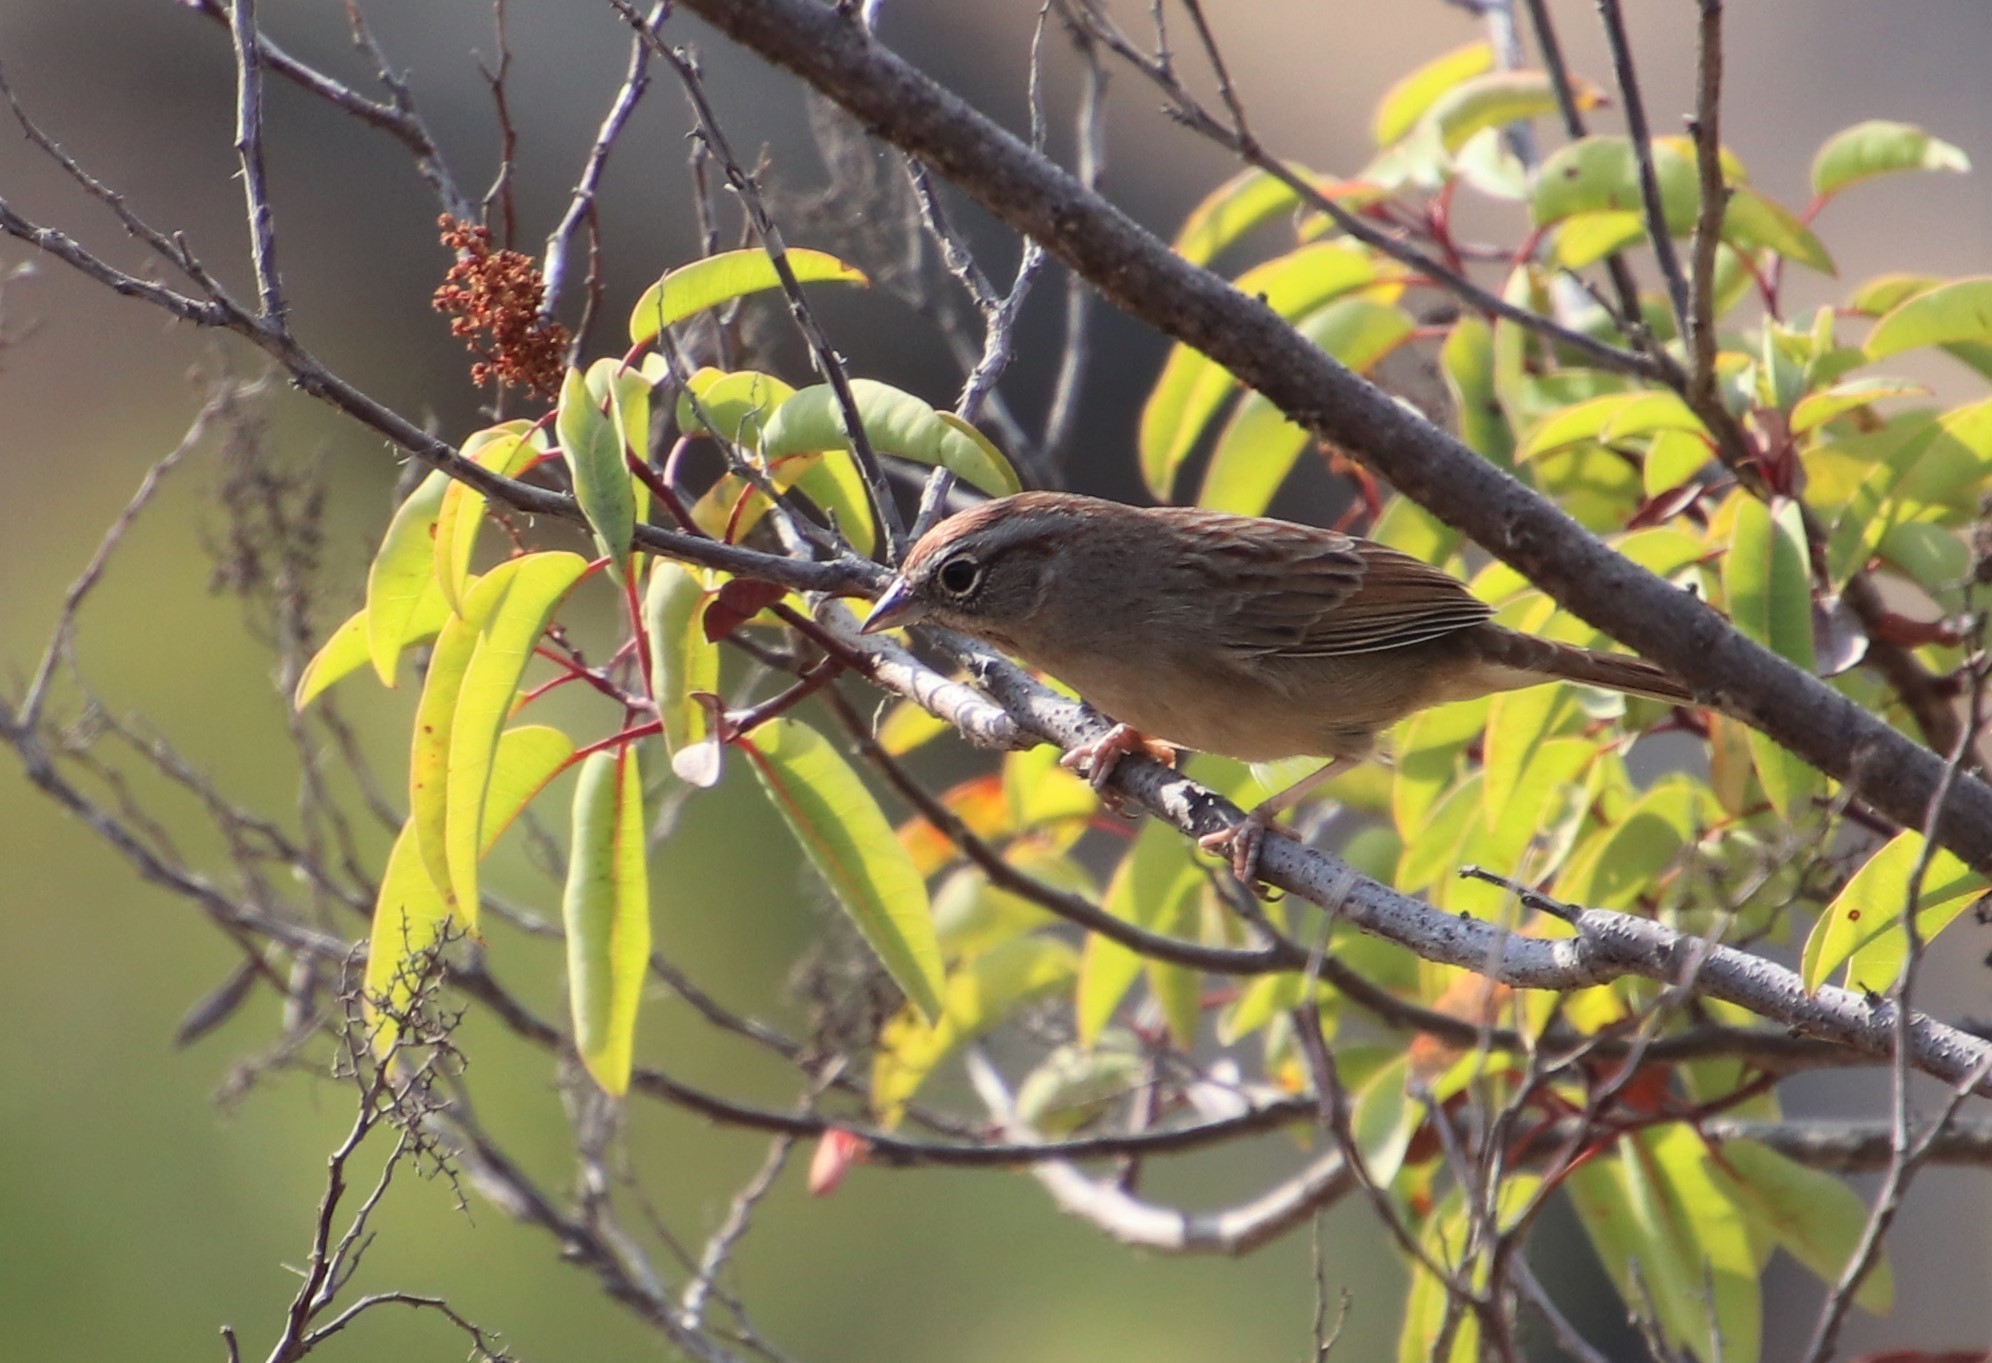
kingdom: Animalia
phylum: Chordata
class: Aves
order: Passeriformes
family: Passerellidae
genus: Aimophila
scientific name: Aimophila ruficeps
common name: Rufous-crowned sparrow
